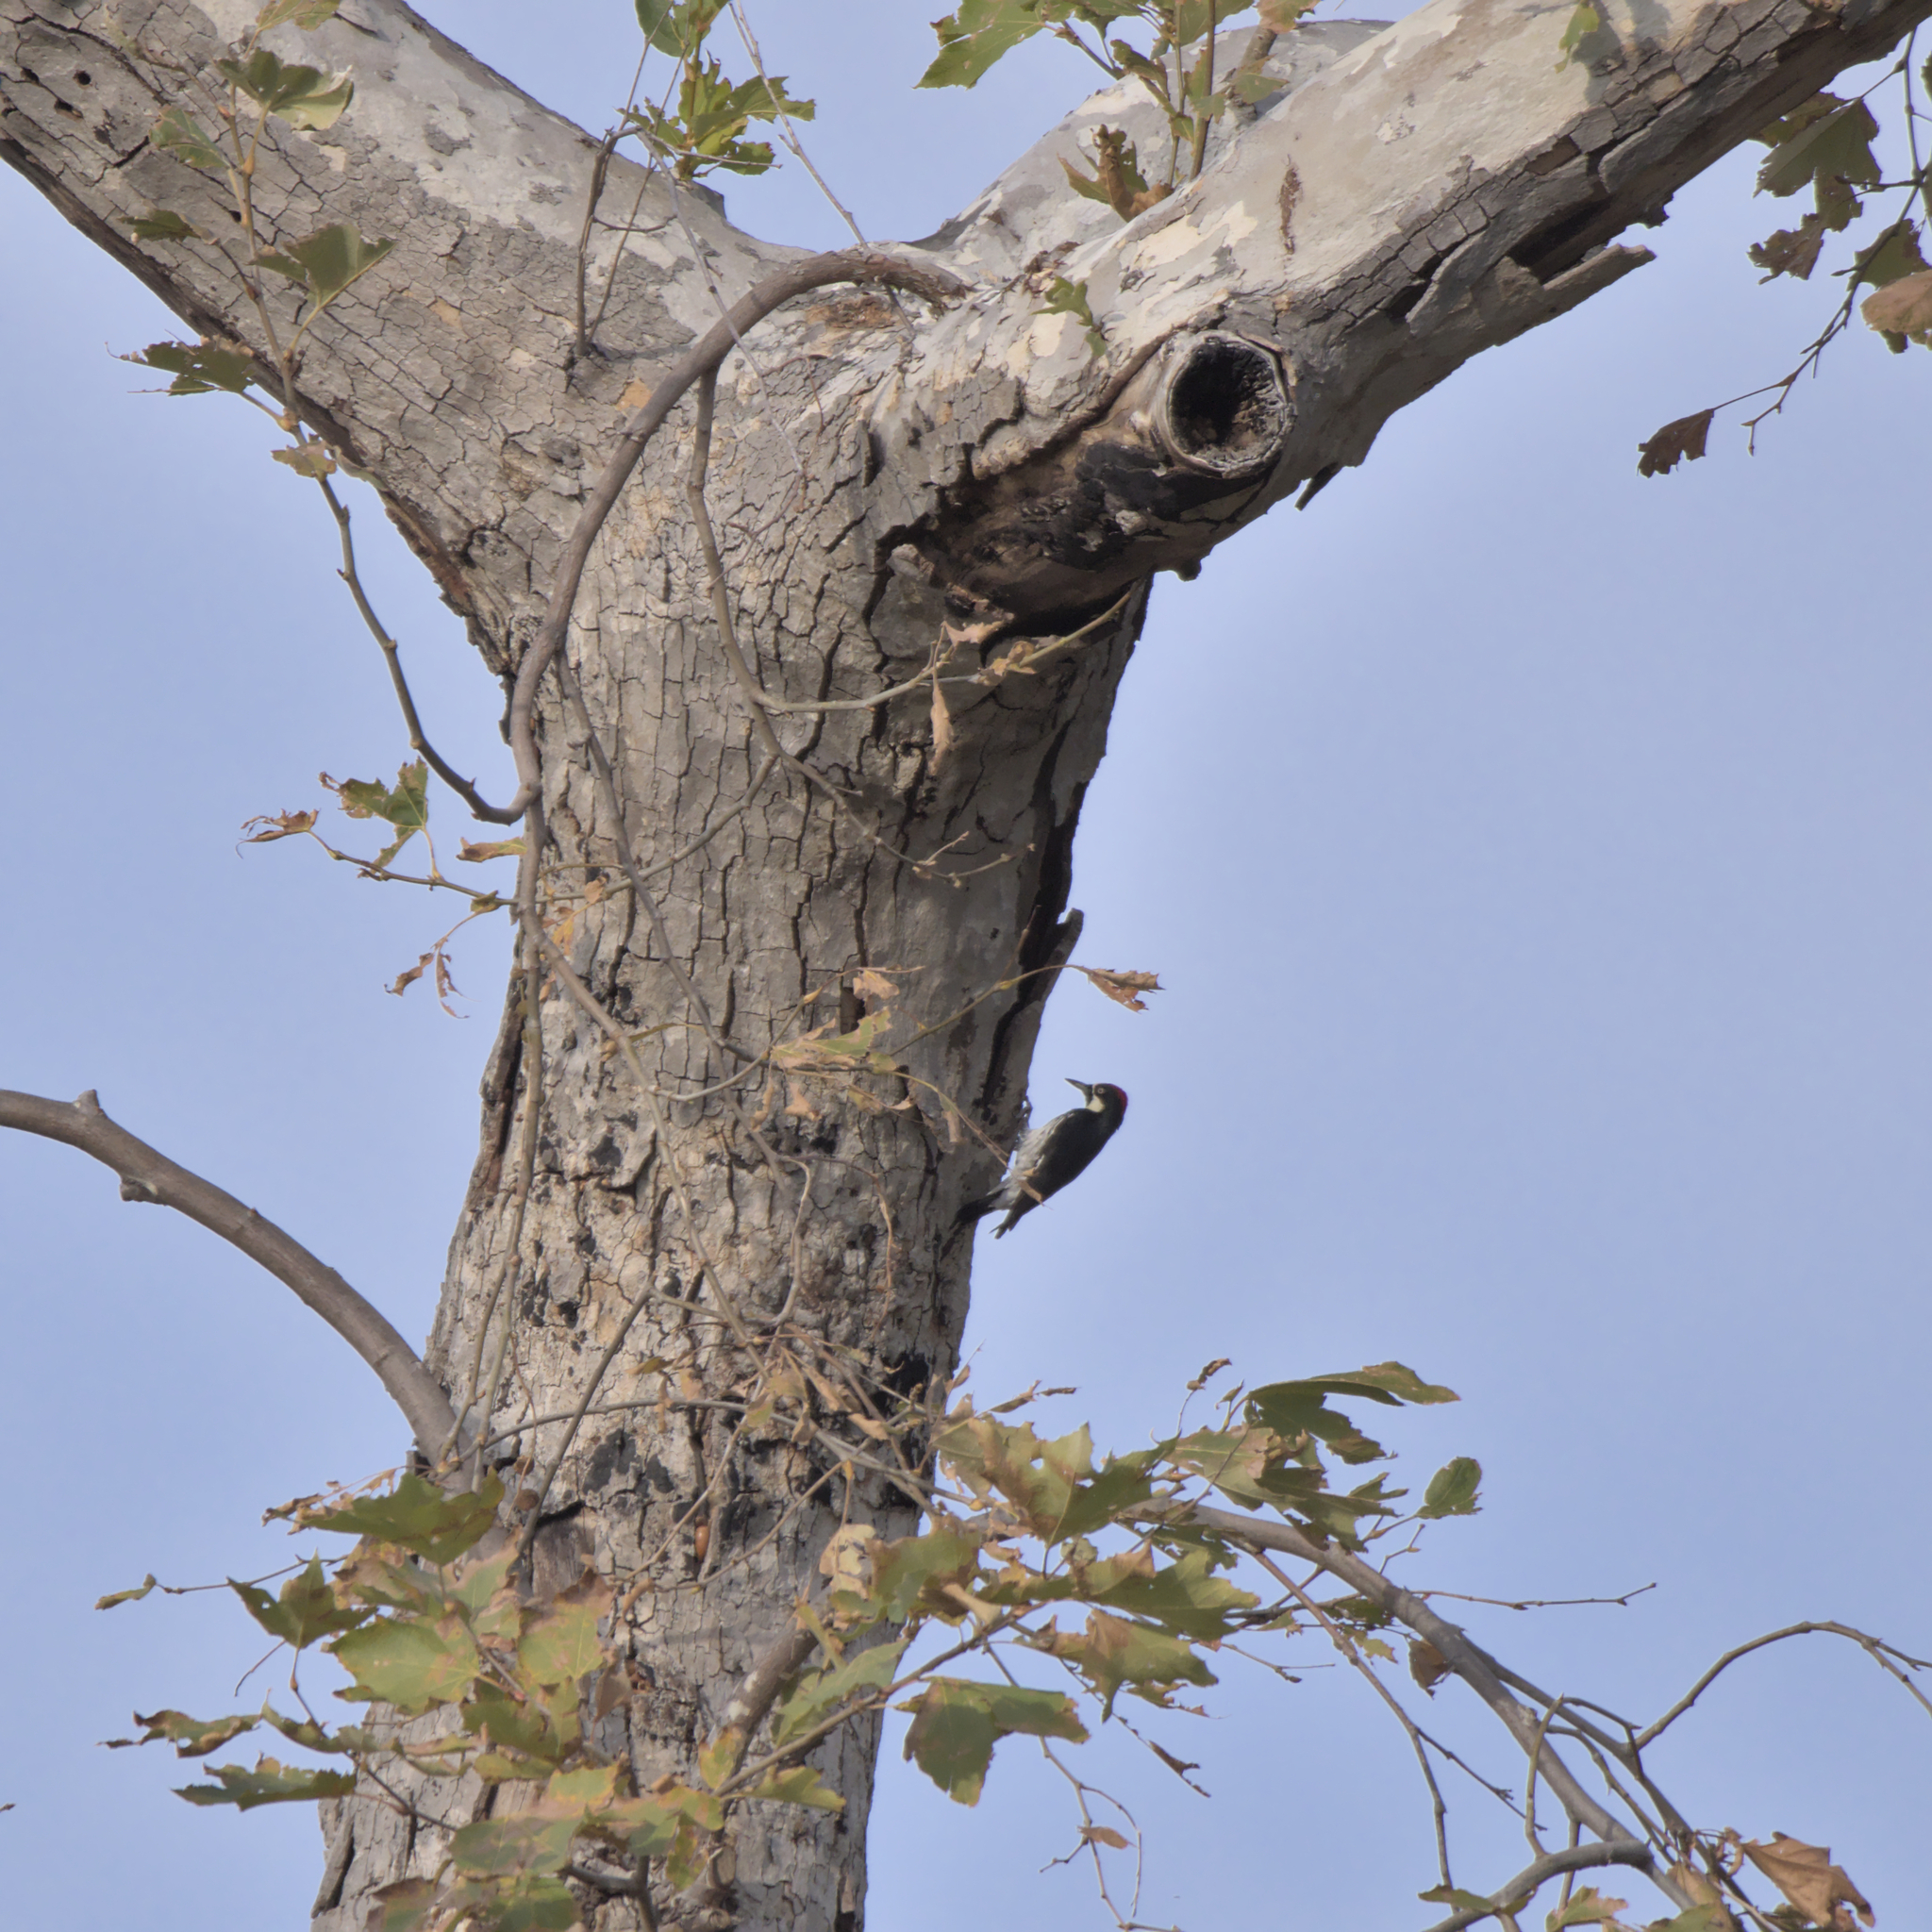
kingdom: Animalia
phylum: Chordata
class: Aves
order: Piciformes
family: Picidae
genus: Melanerpes
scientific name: Melanerpes formicivorus
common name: Acorn woodpecker
